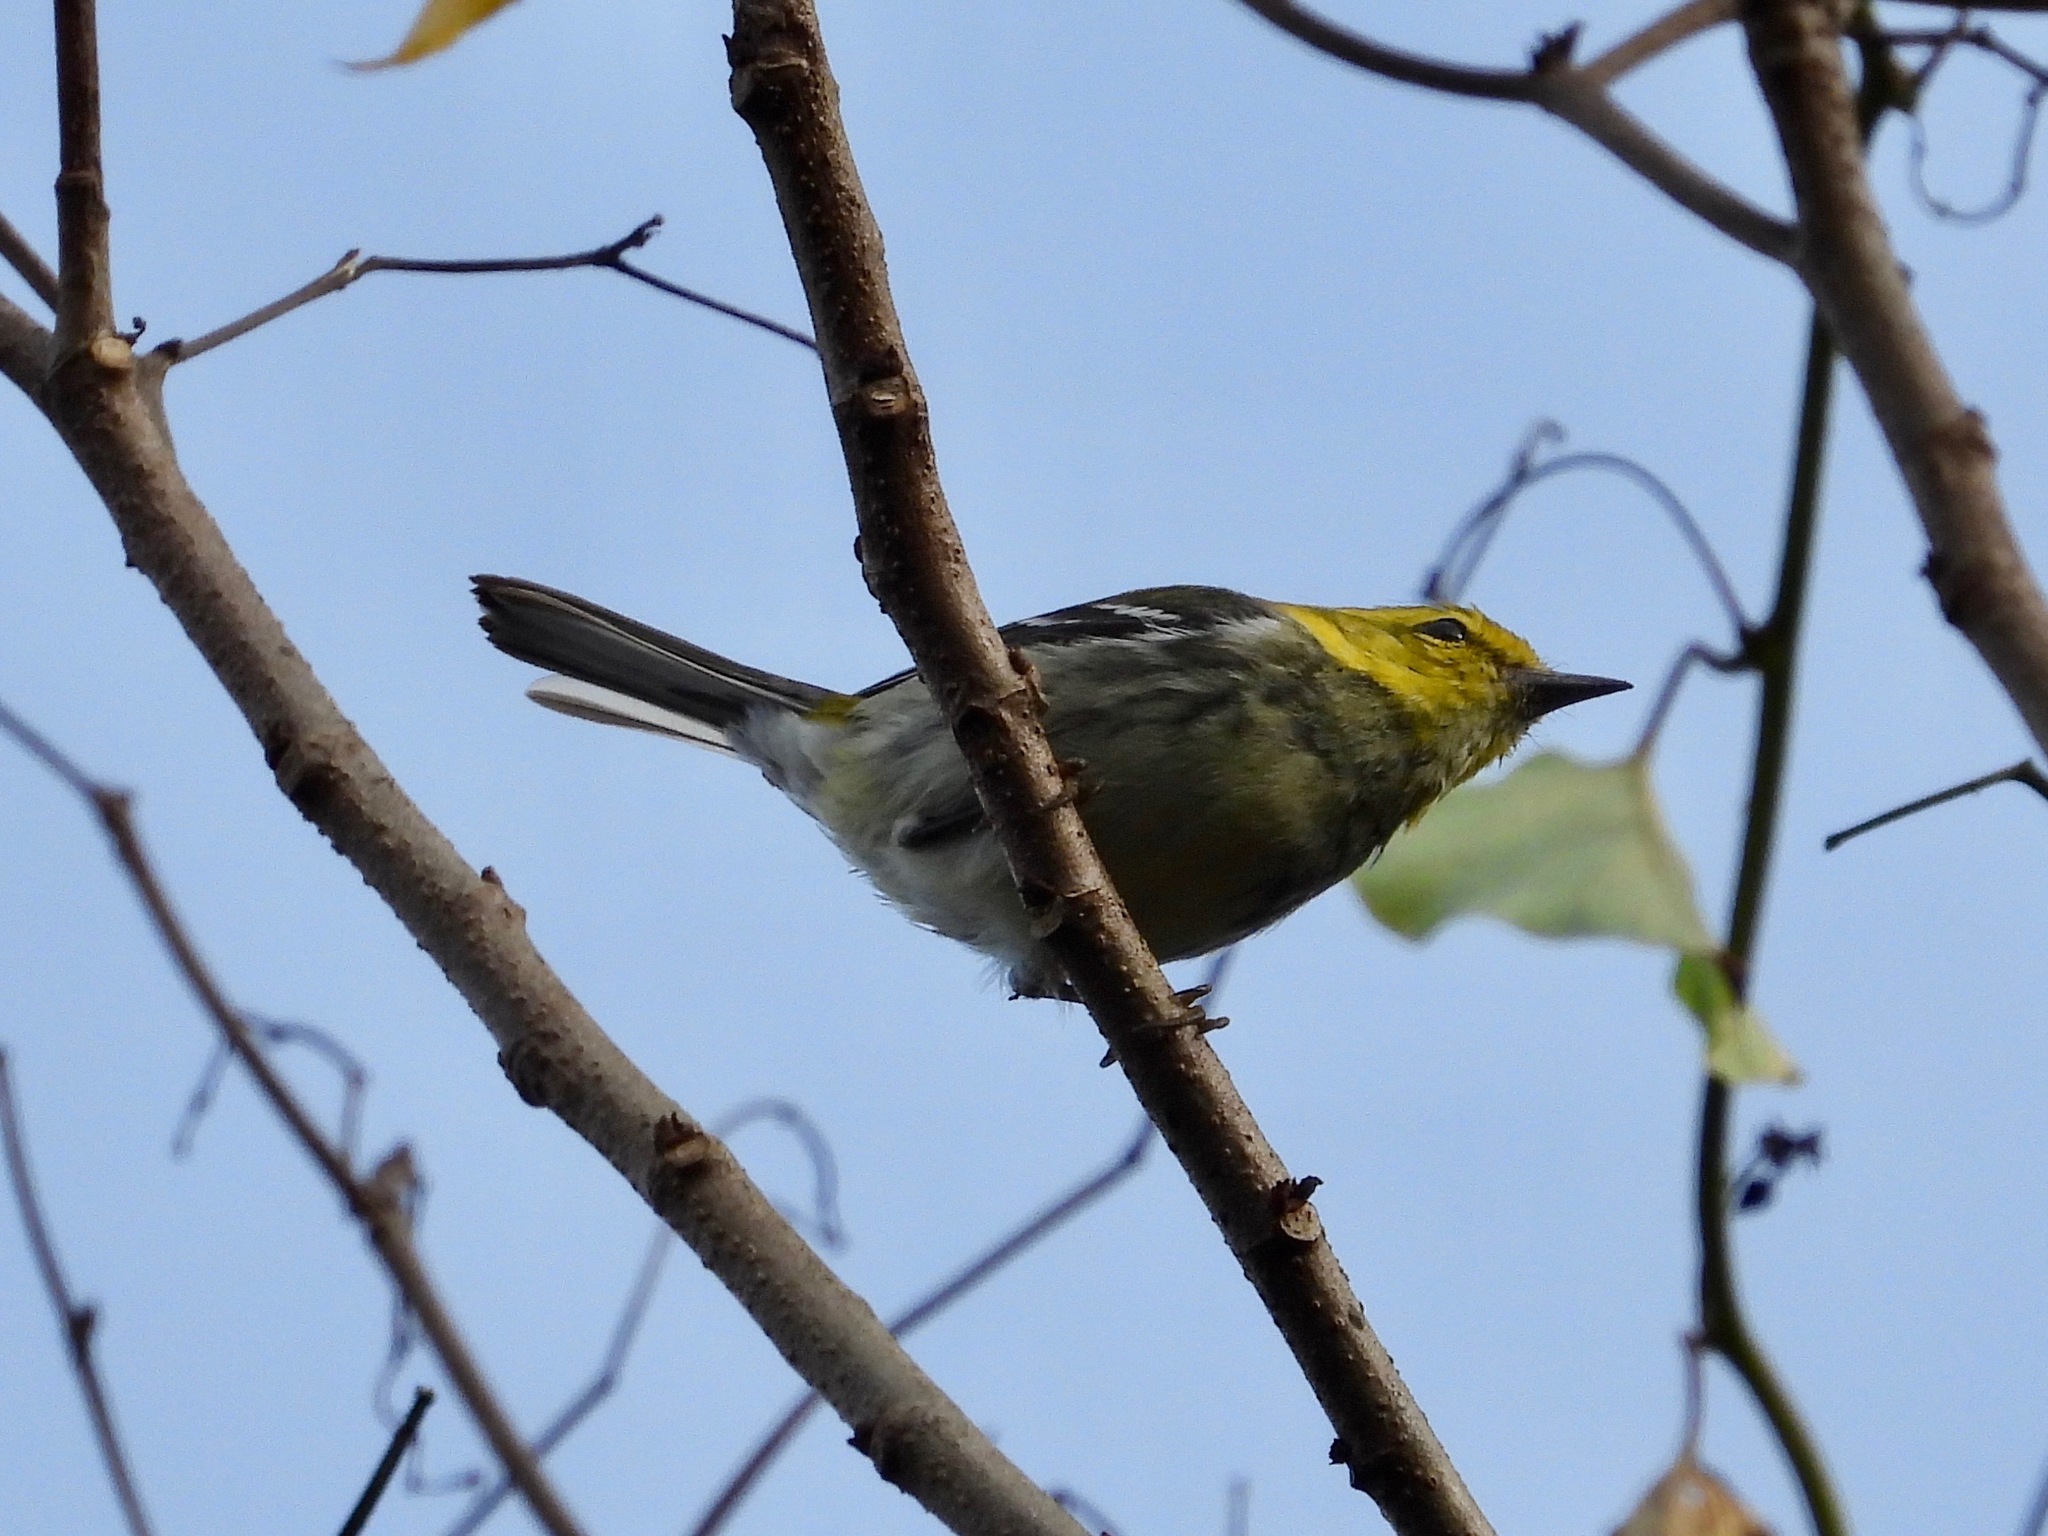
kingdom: Animalia
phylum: Chordata
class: Aves
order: Passeriformes
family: Parulidae
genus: Setophaga
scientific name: Setophaga virens
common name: Black-throated green warbler
